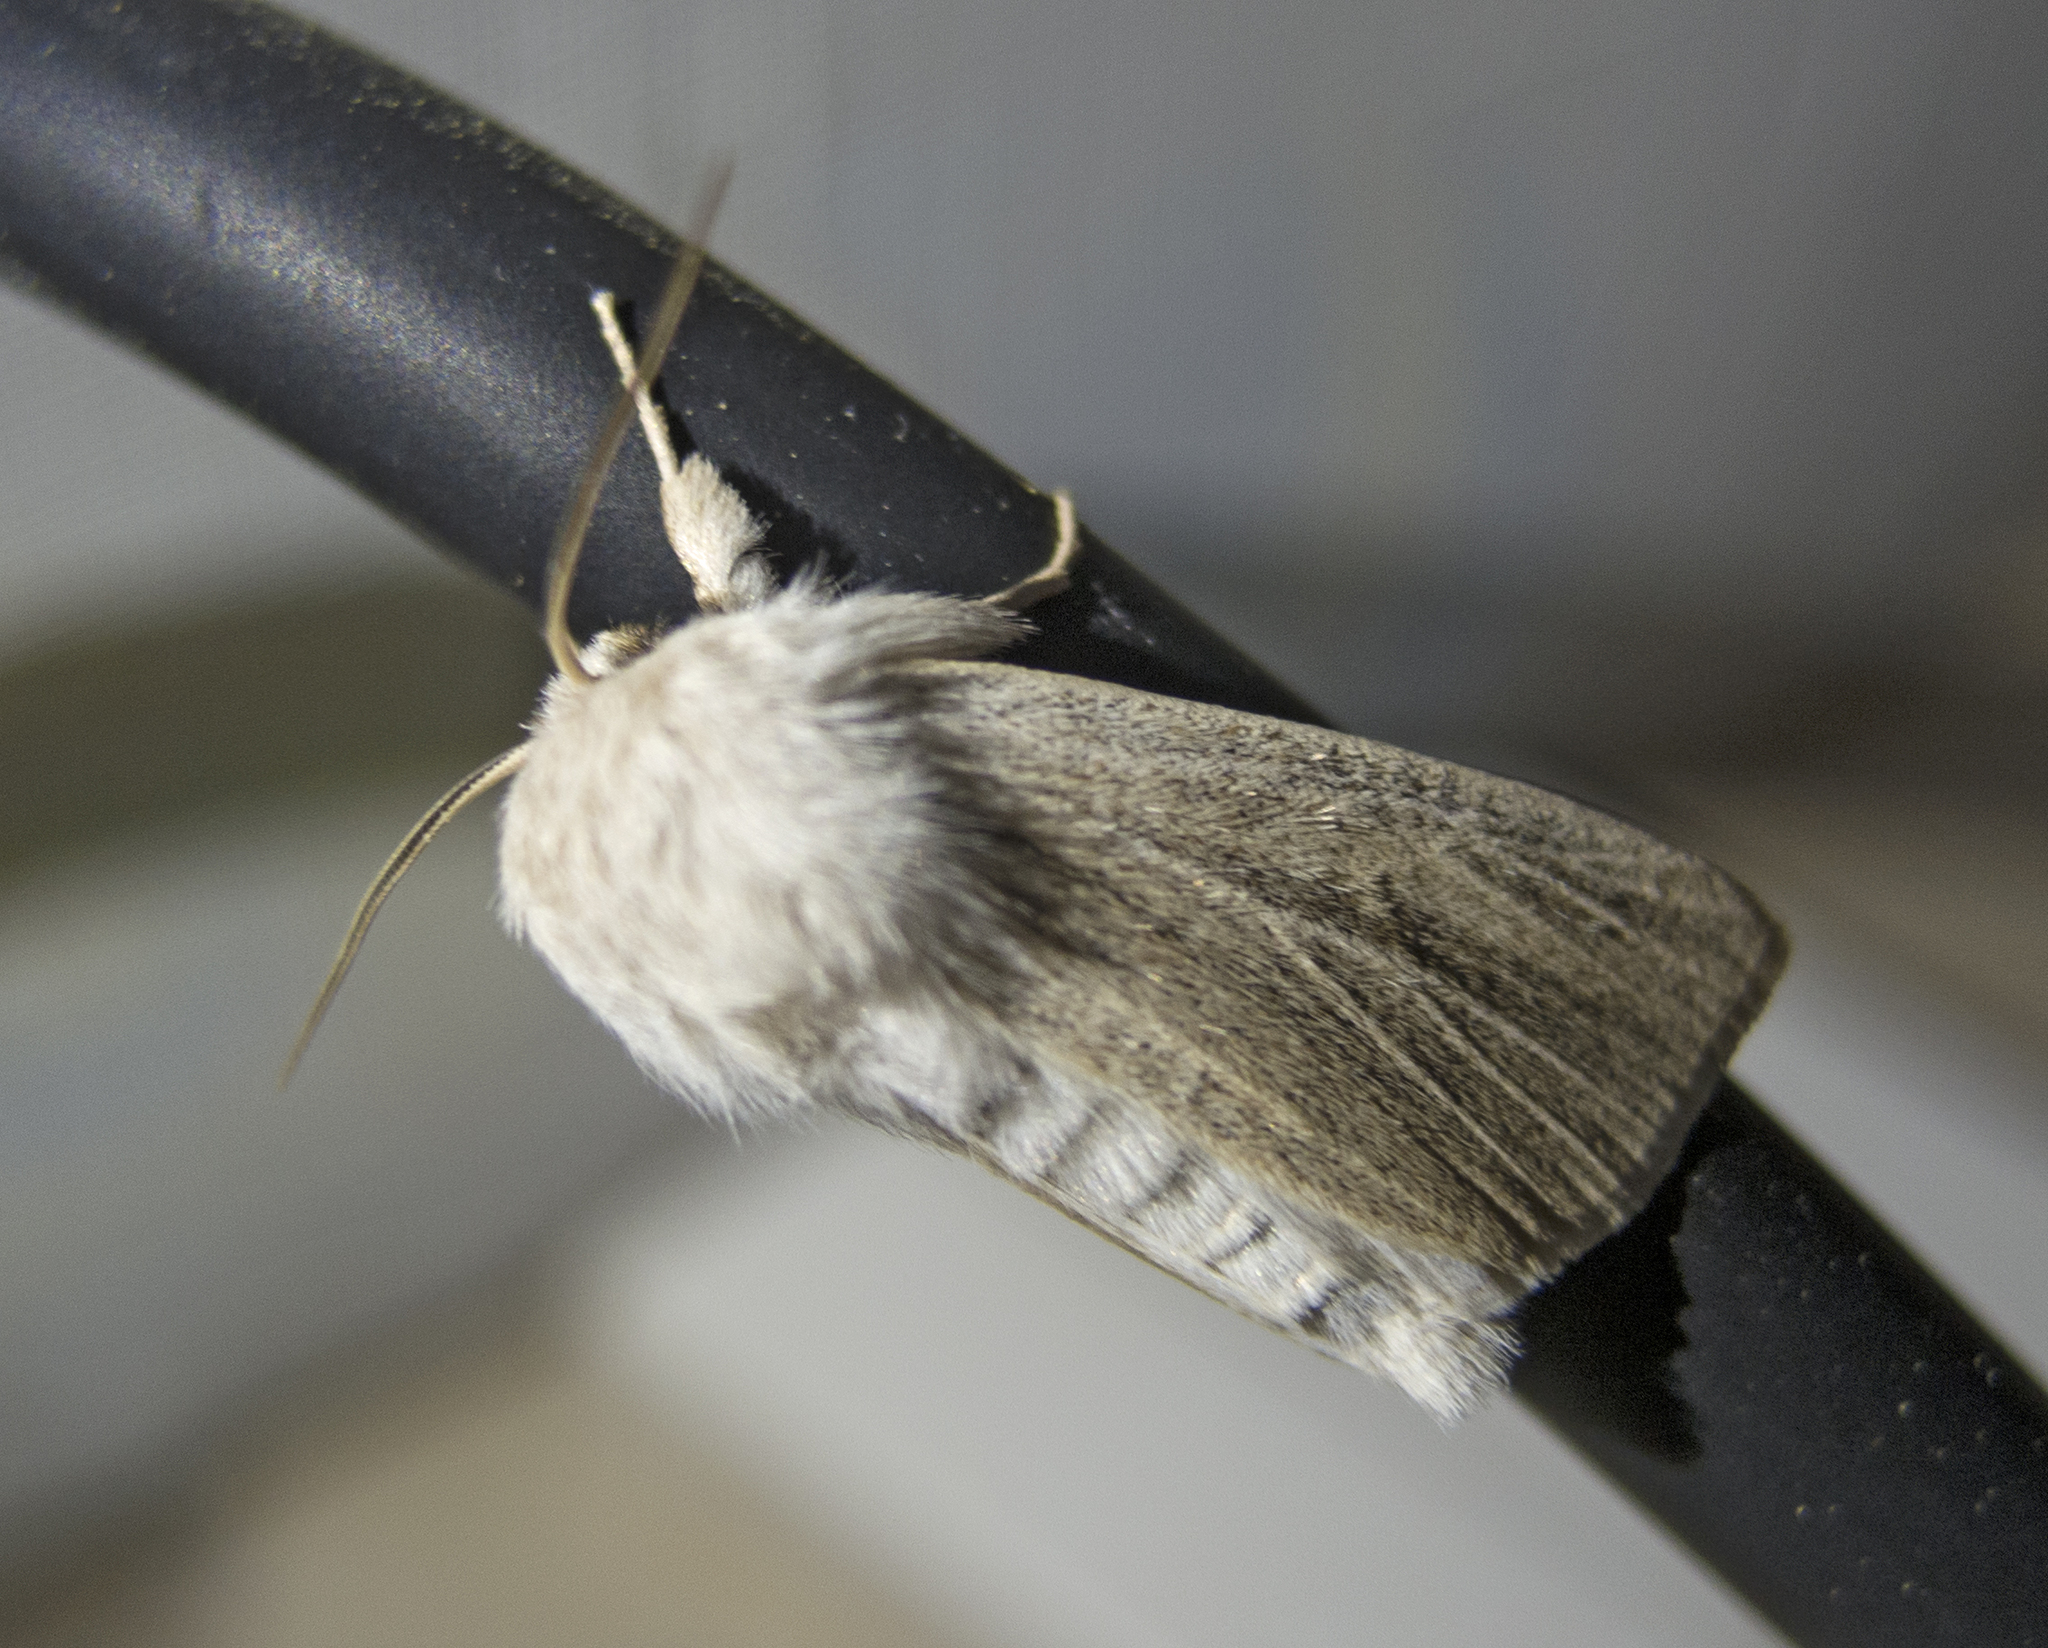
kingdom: Animalia
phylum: Arthropoda
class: Insecta
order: Lepidoptera
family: Noctuidae
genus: Simyra
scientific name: Simyra albovenosa
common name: Reed dagger
